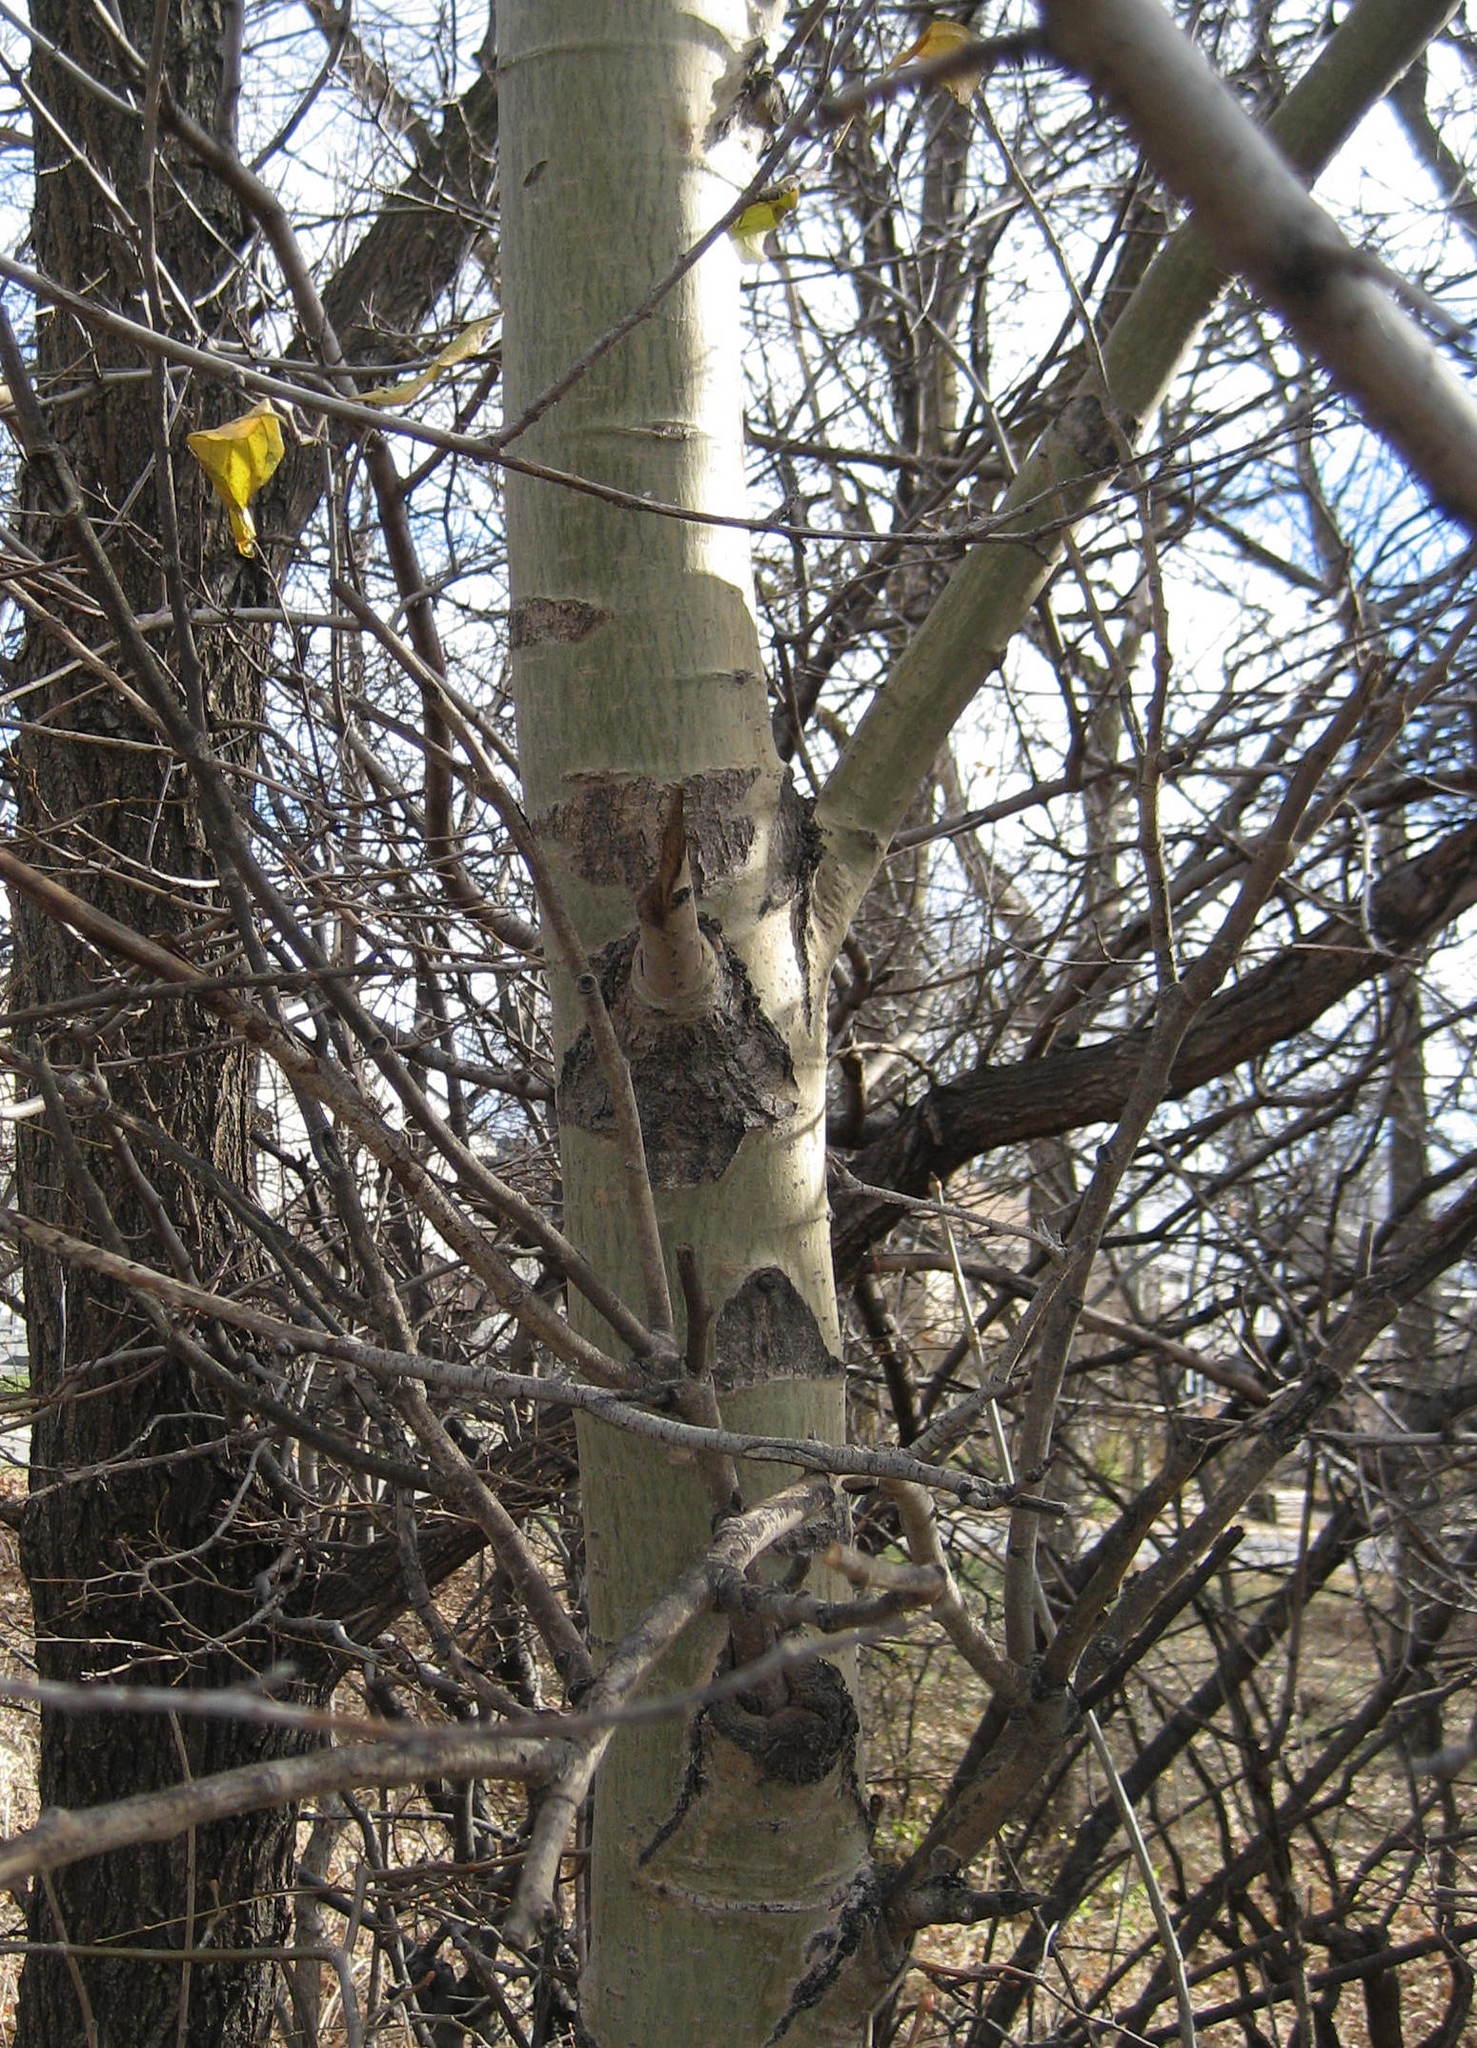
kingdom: Plantae
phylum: Tracheophyta
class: Magnoliopsida
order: Malpighiales
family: Salicaceae
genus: Populus
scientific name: Populus grandidentata
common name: Bigtooth aspen
